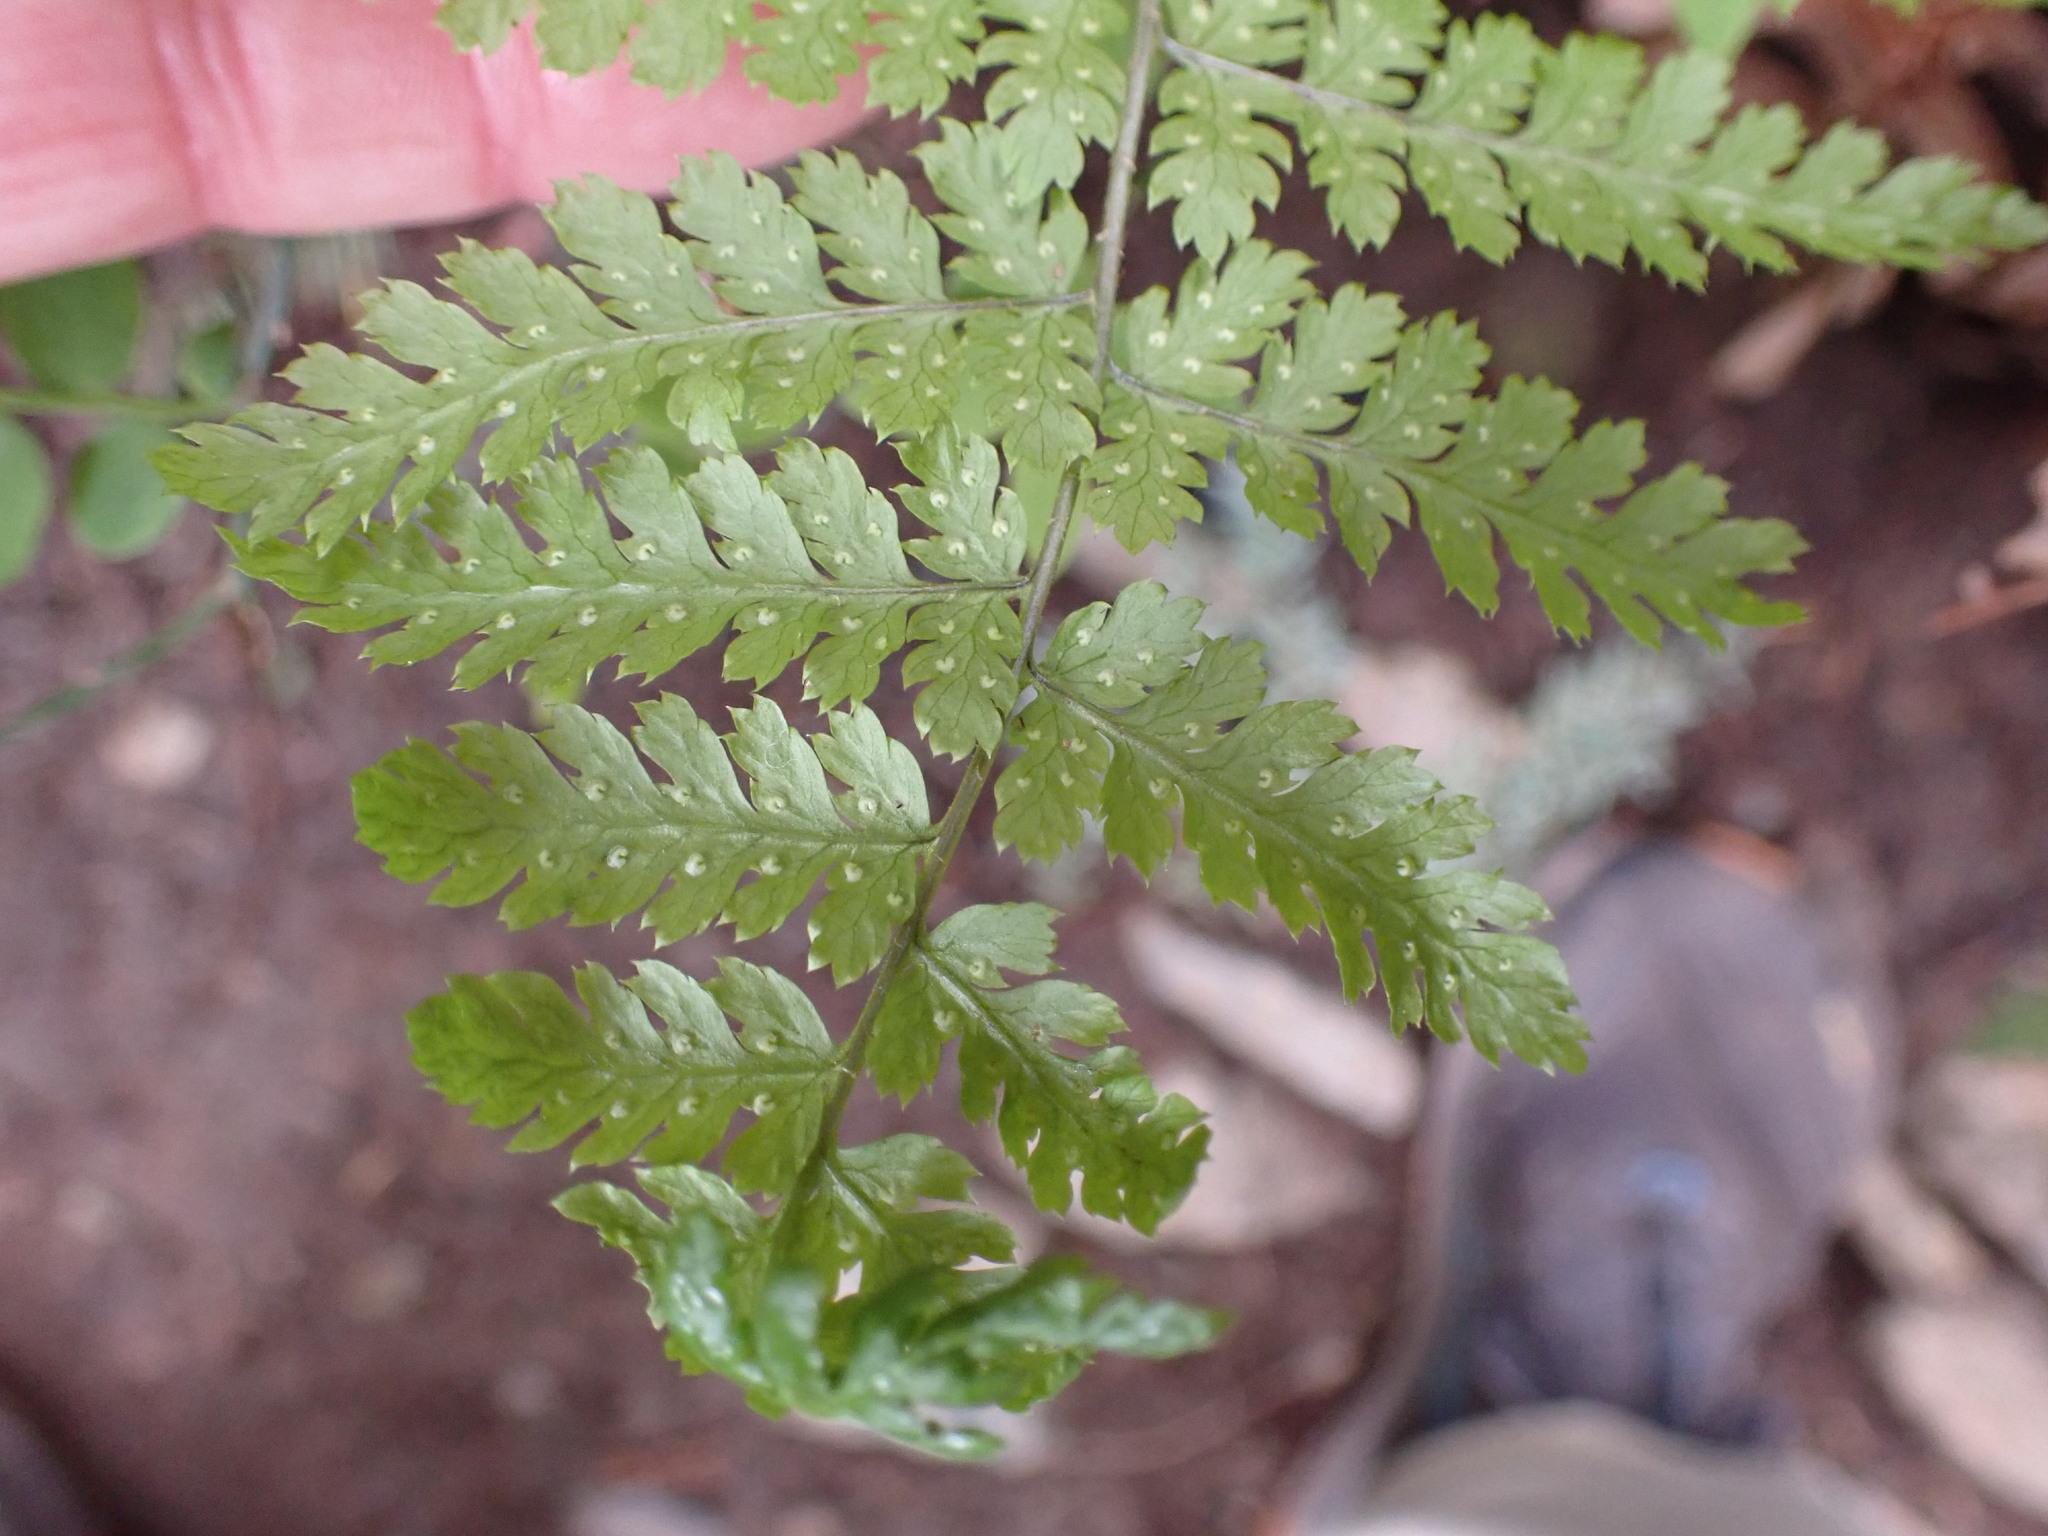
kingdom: Plantae
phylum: Tracheophyta
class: Polypodiopsida
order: Polypodiales
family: Dryopteridaceae
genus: Dryopteris
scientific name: Dryopteris expansa
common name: Northern buckler fern
